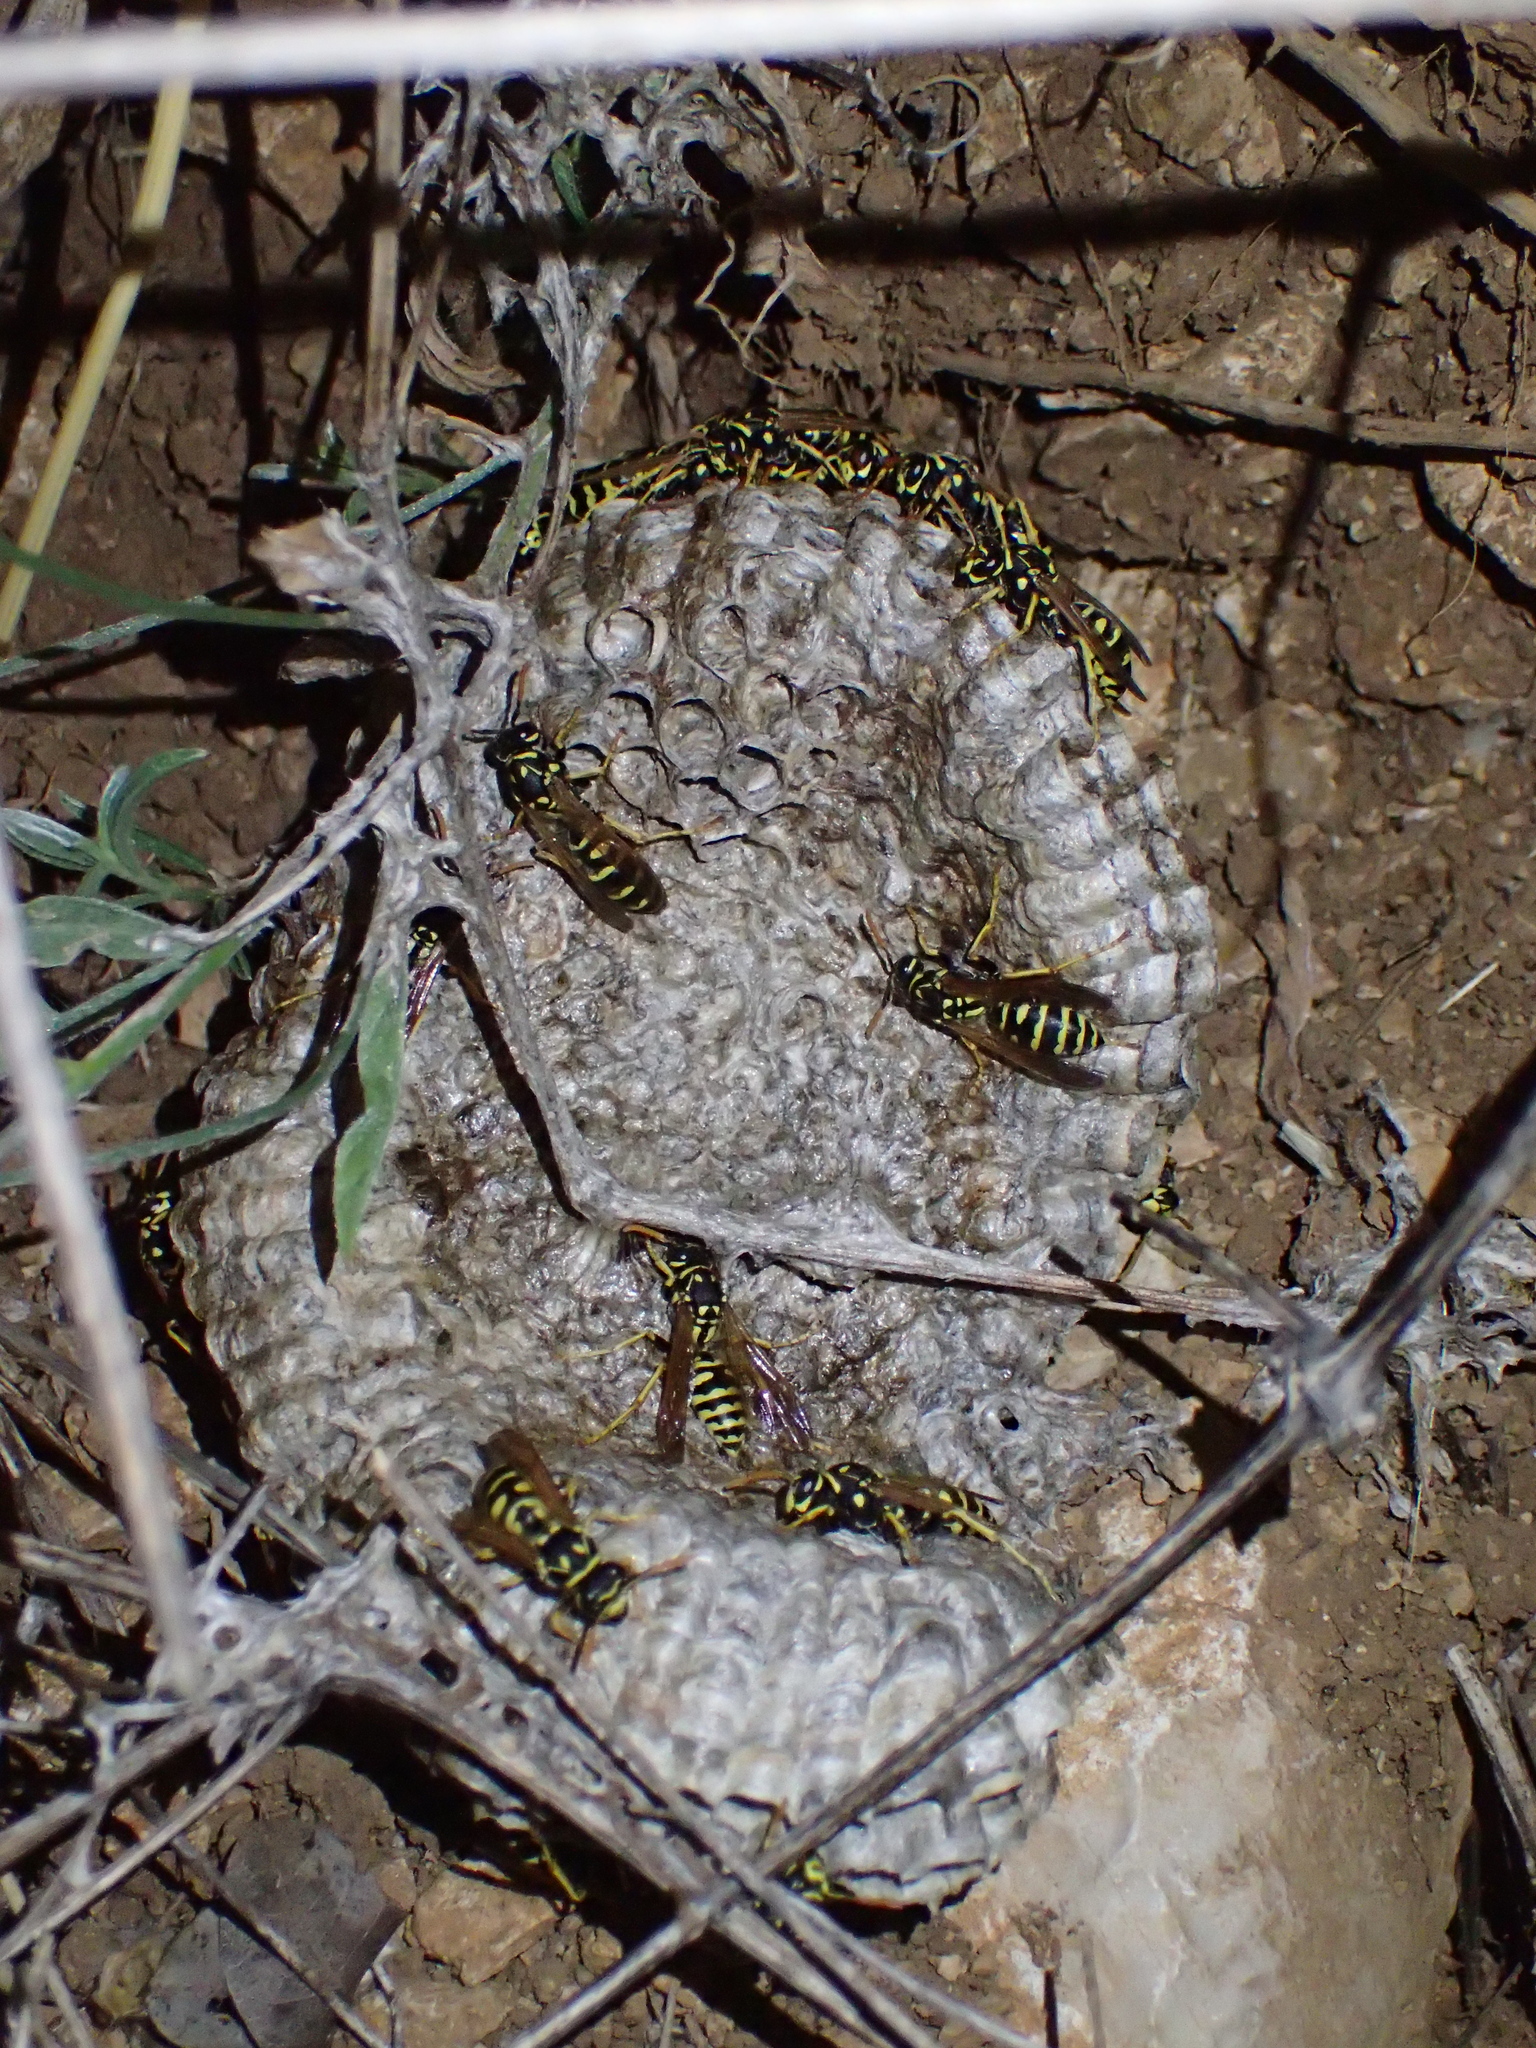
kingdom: Animalia
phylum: Arthropoda
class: Insecta
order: Hymenoptera
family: Eumenidae
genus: Polistes
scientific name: Polistes dominula
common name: Paper wasp
